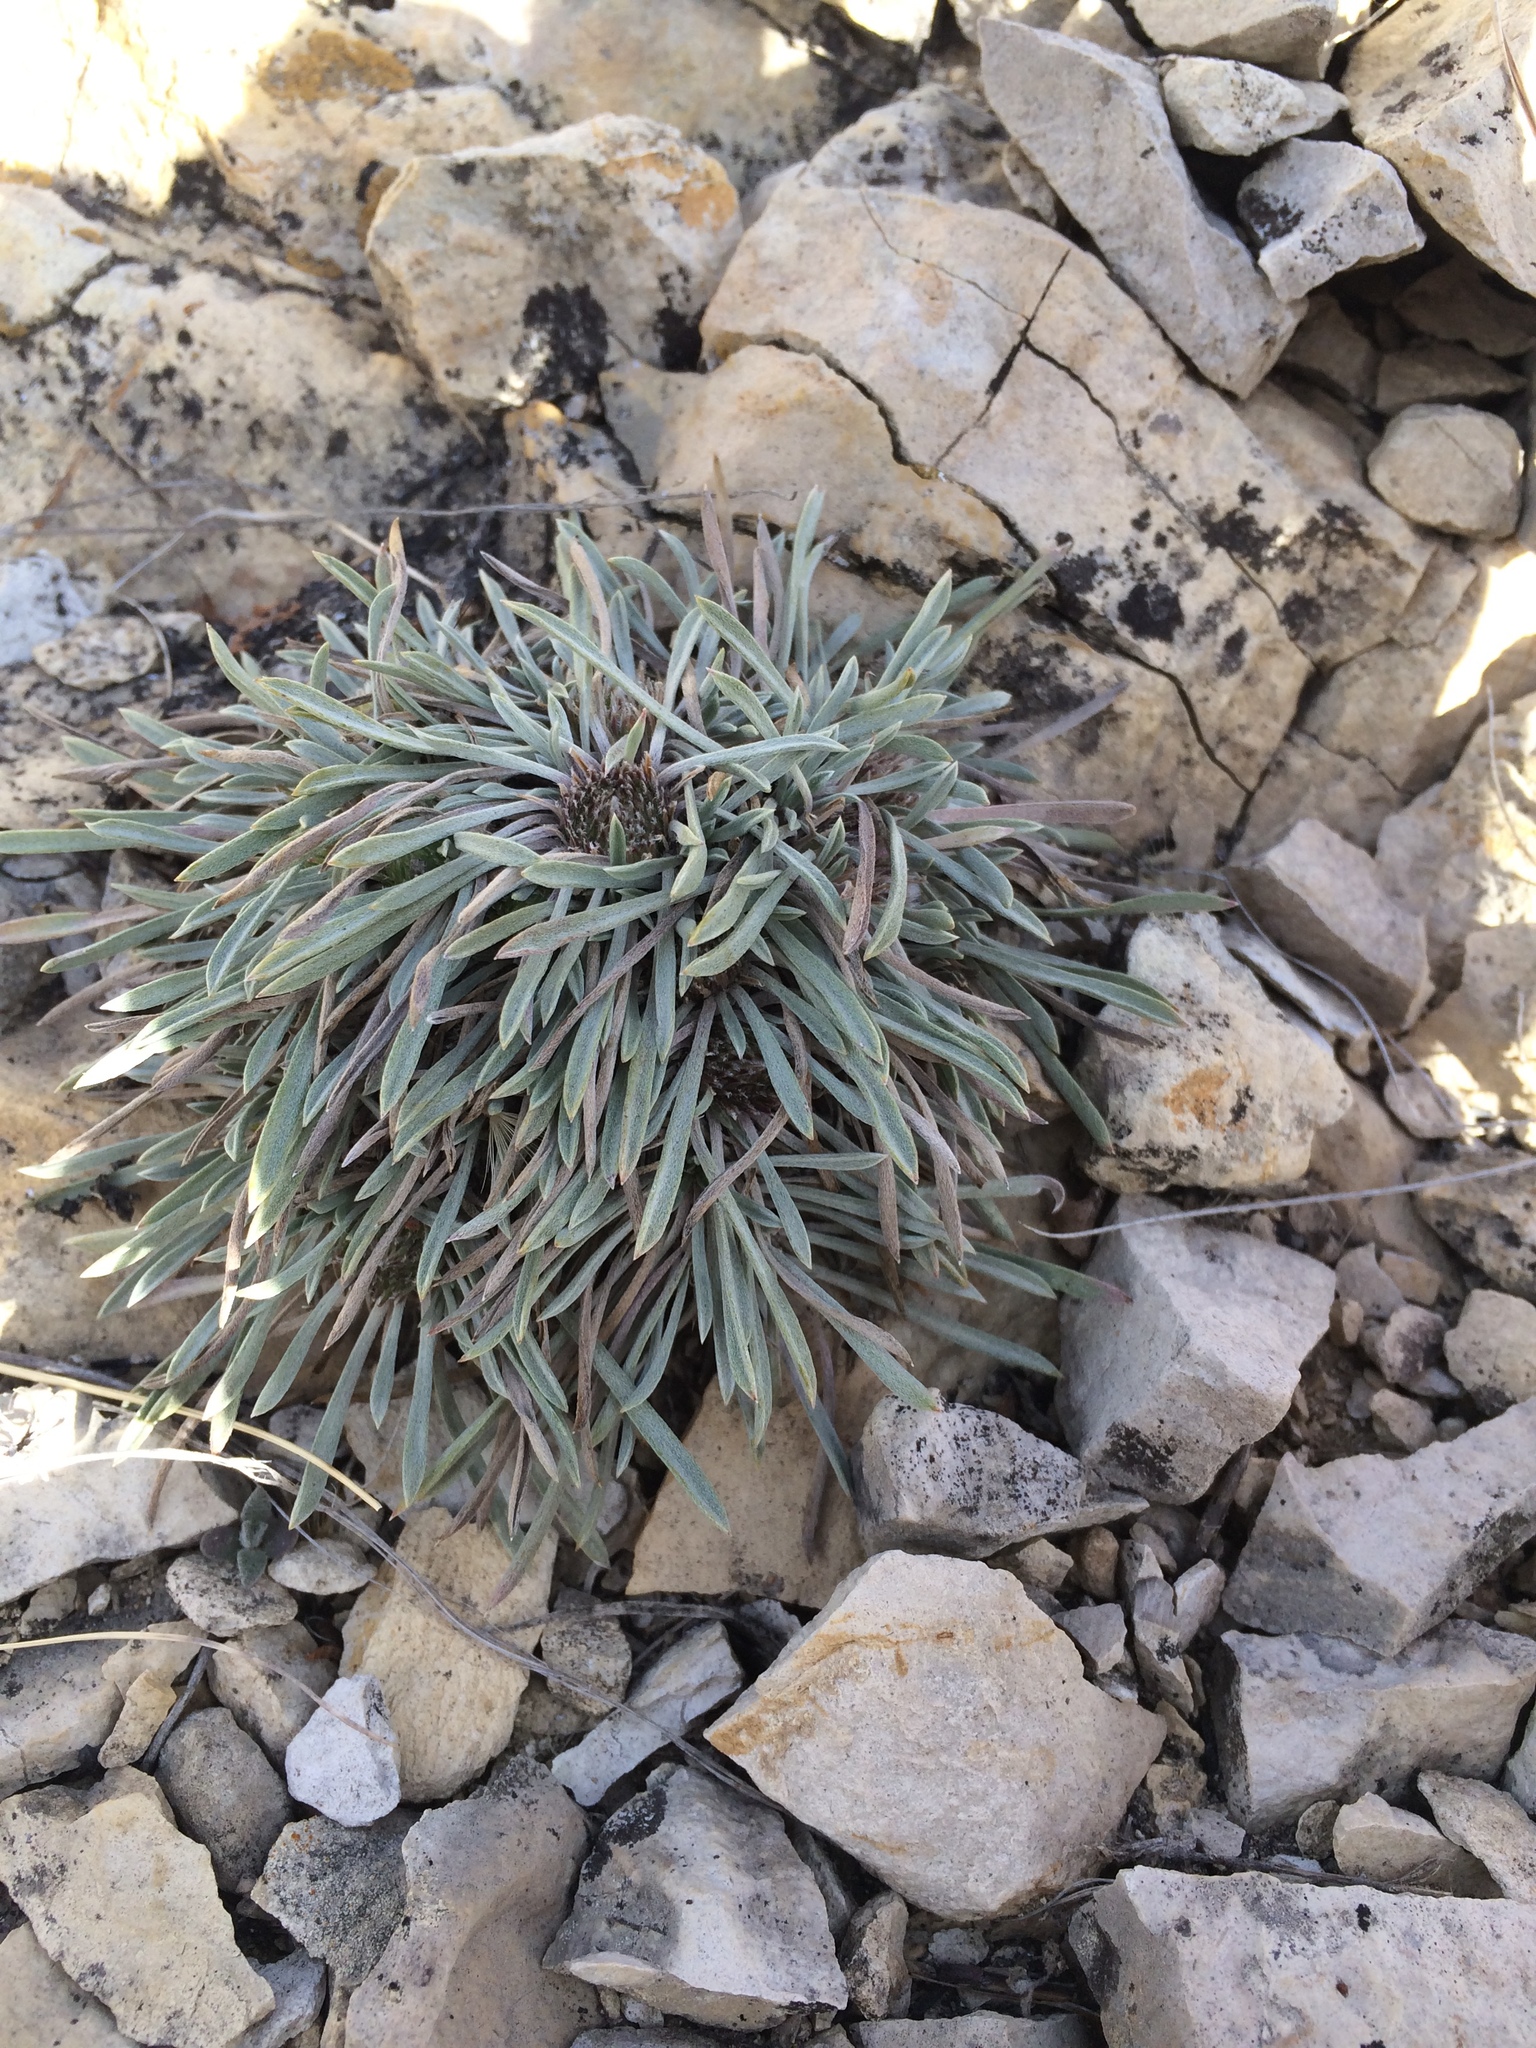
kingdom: Plantae
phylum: Tracheophyta
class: Magnoliopsida
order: Asterales
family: Asteraceae
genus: Townsendia
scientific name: Townsendia hookeri
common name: Hooker's townsend daisy
